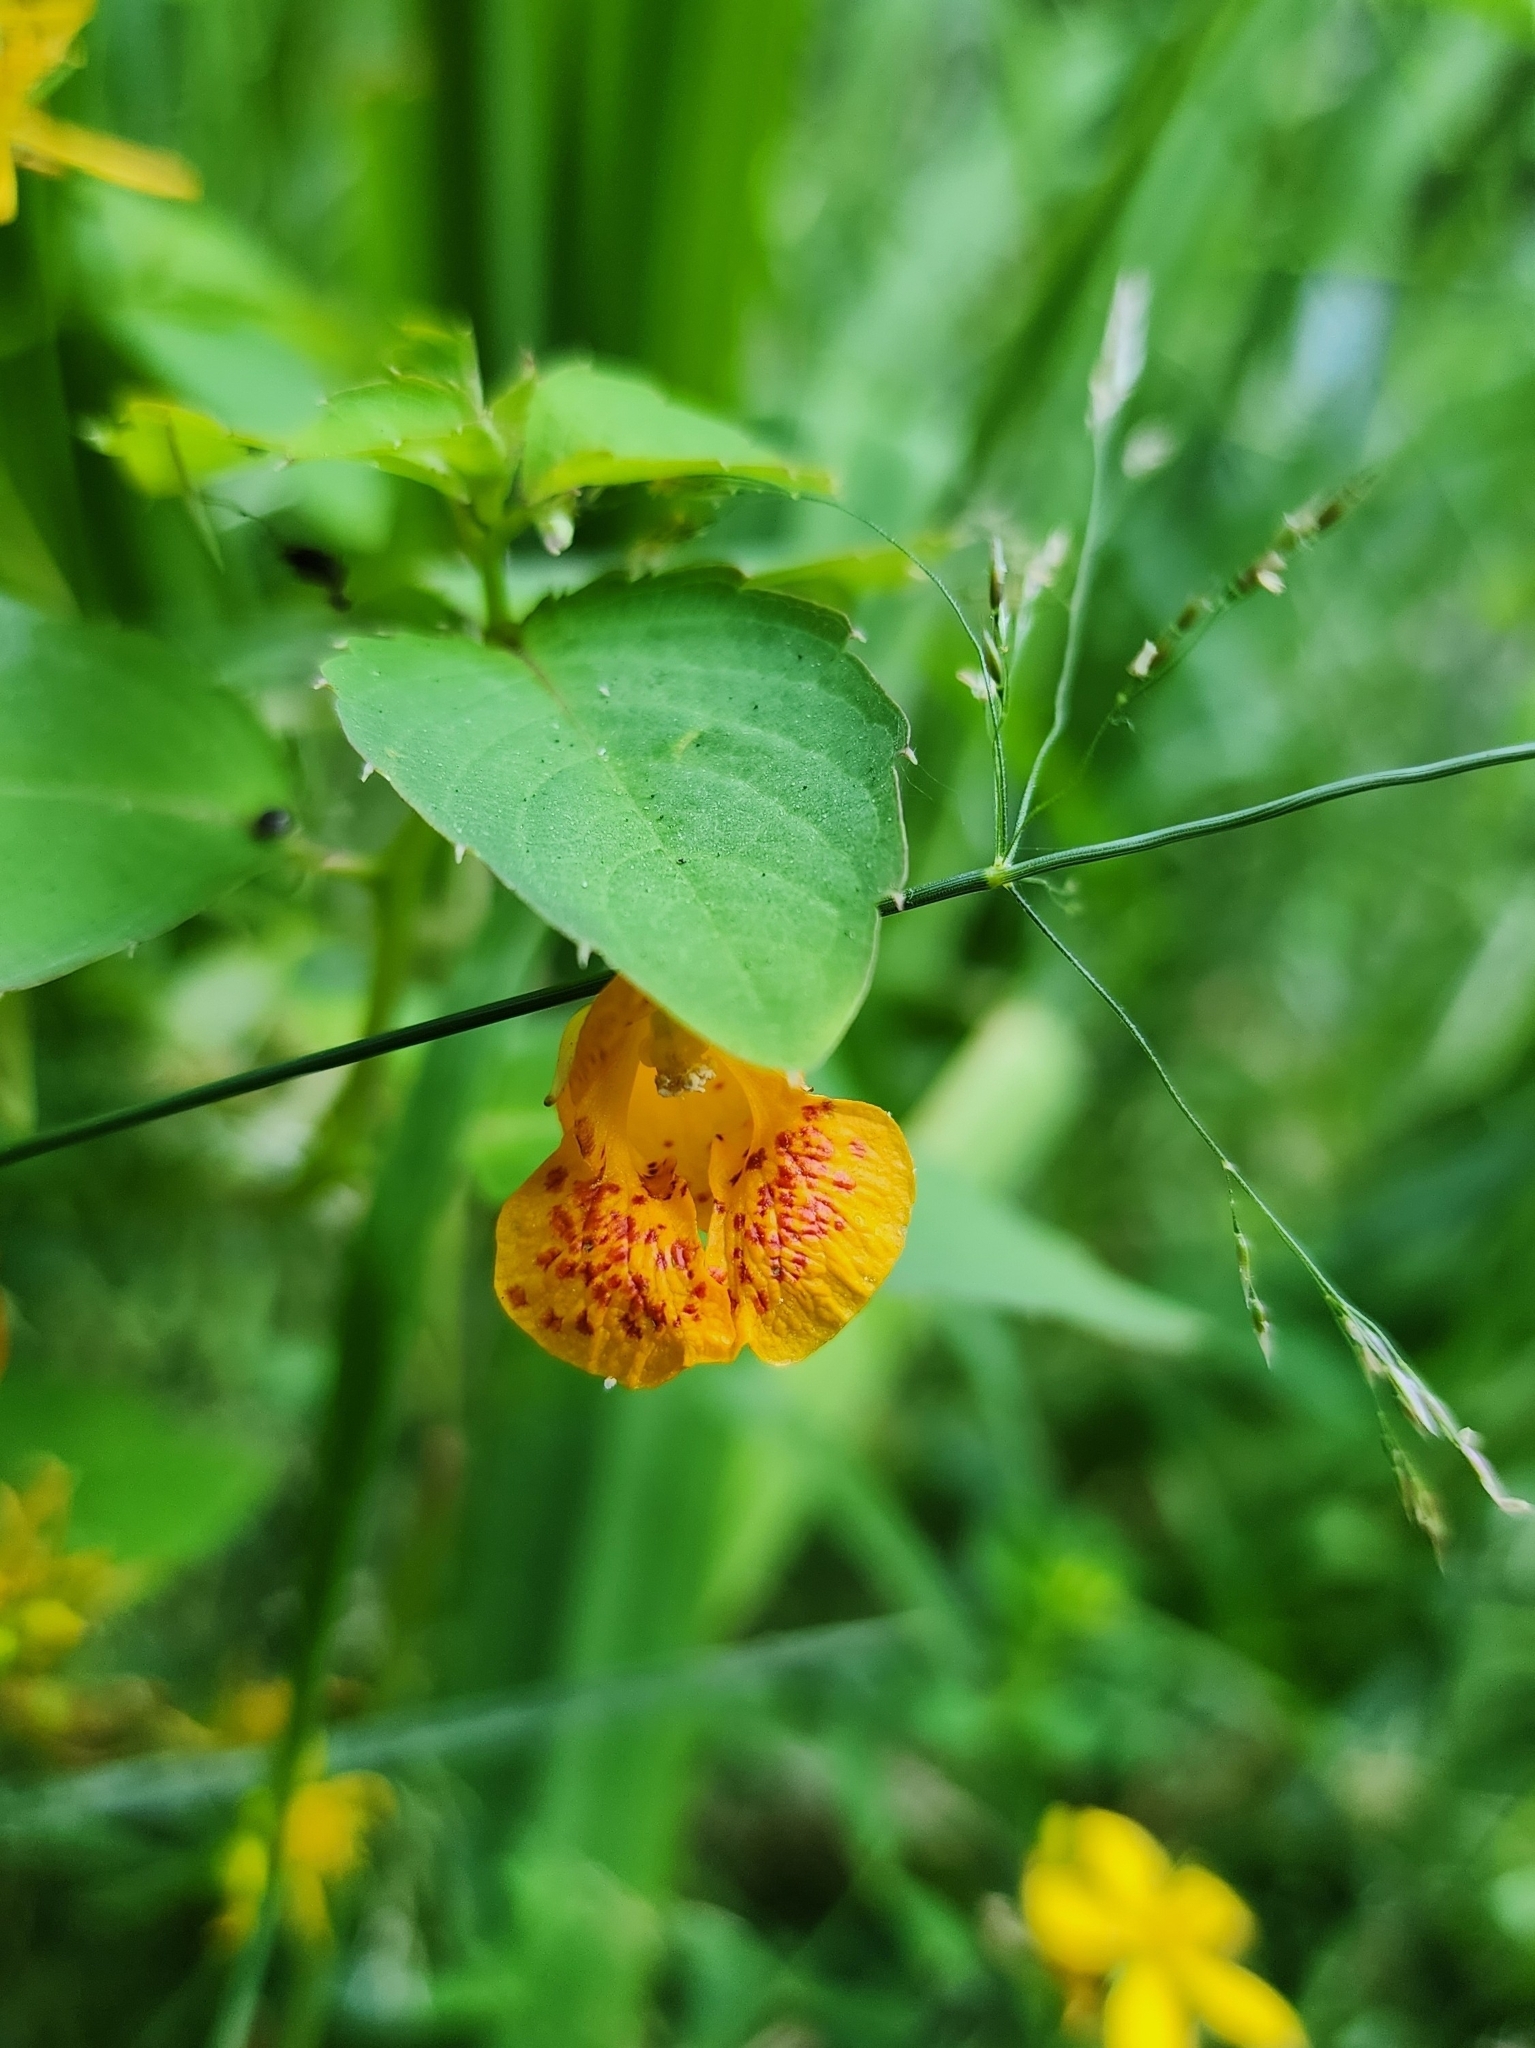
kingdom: Plantae
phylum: Tracheophyta
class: Magnoliopsida
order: Ericales
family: Balsaminaceae
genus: Impatiens
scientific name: Impatiens capensis
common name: Orange balsam
